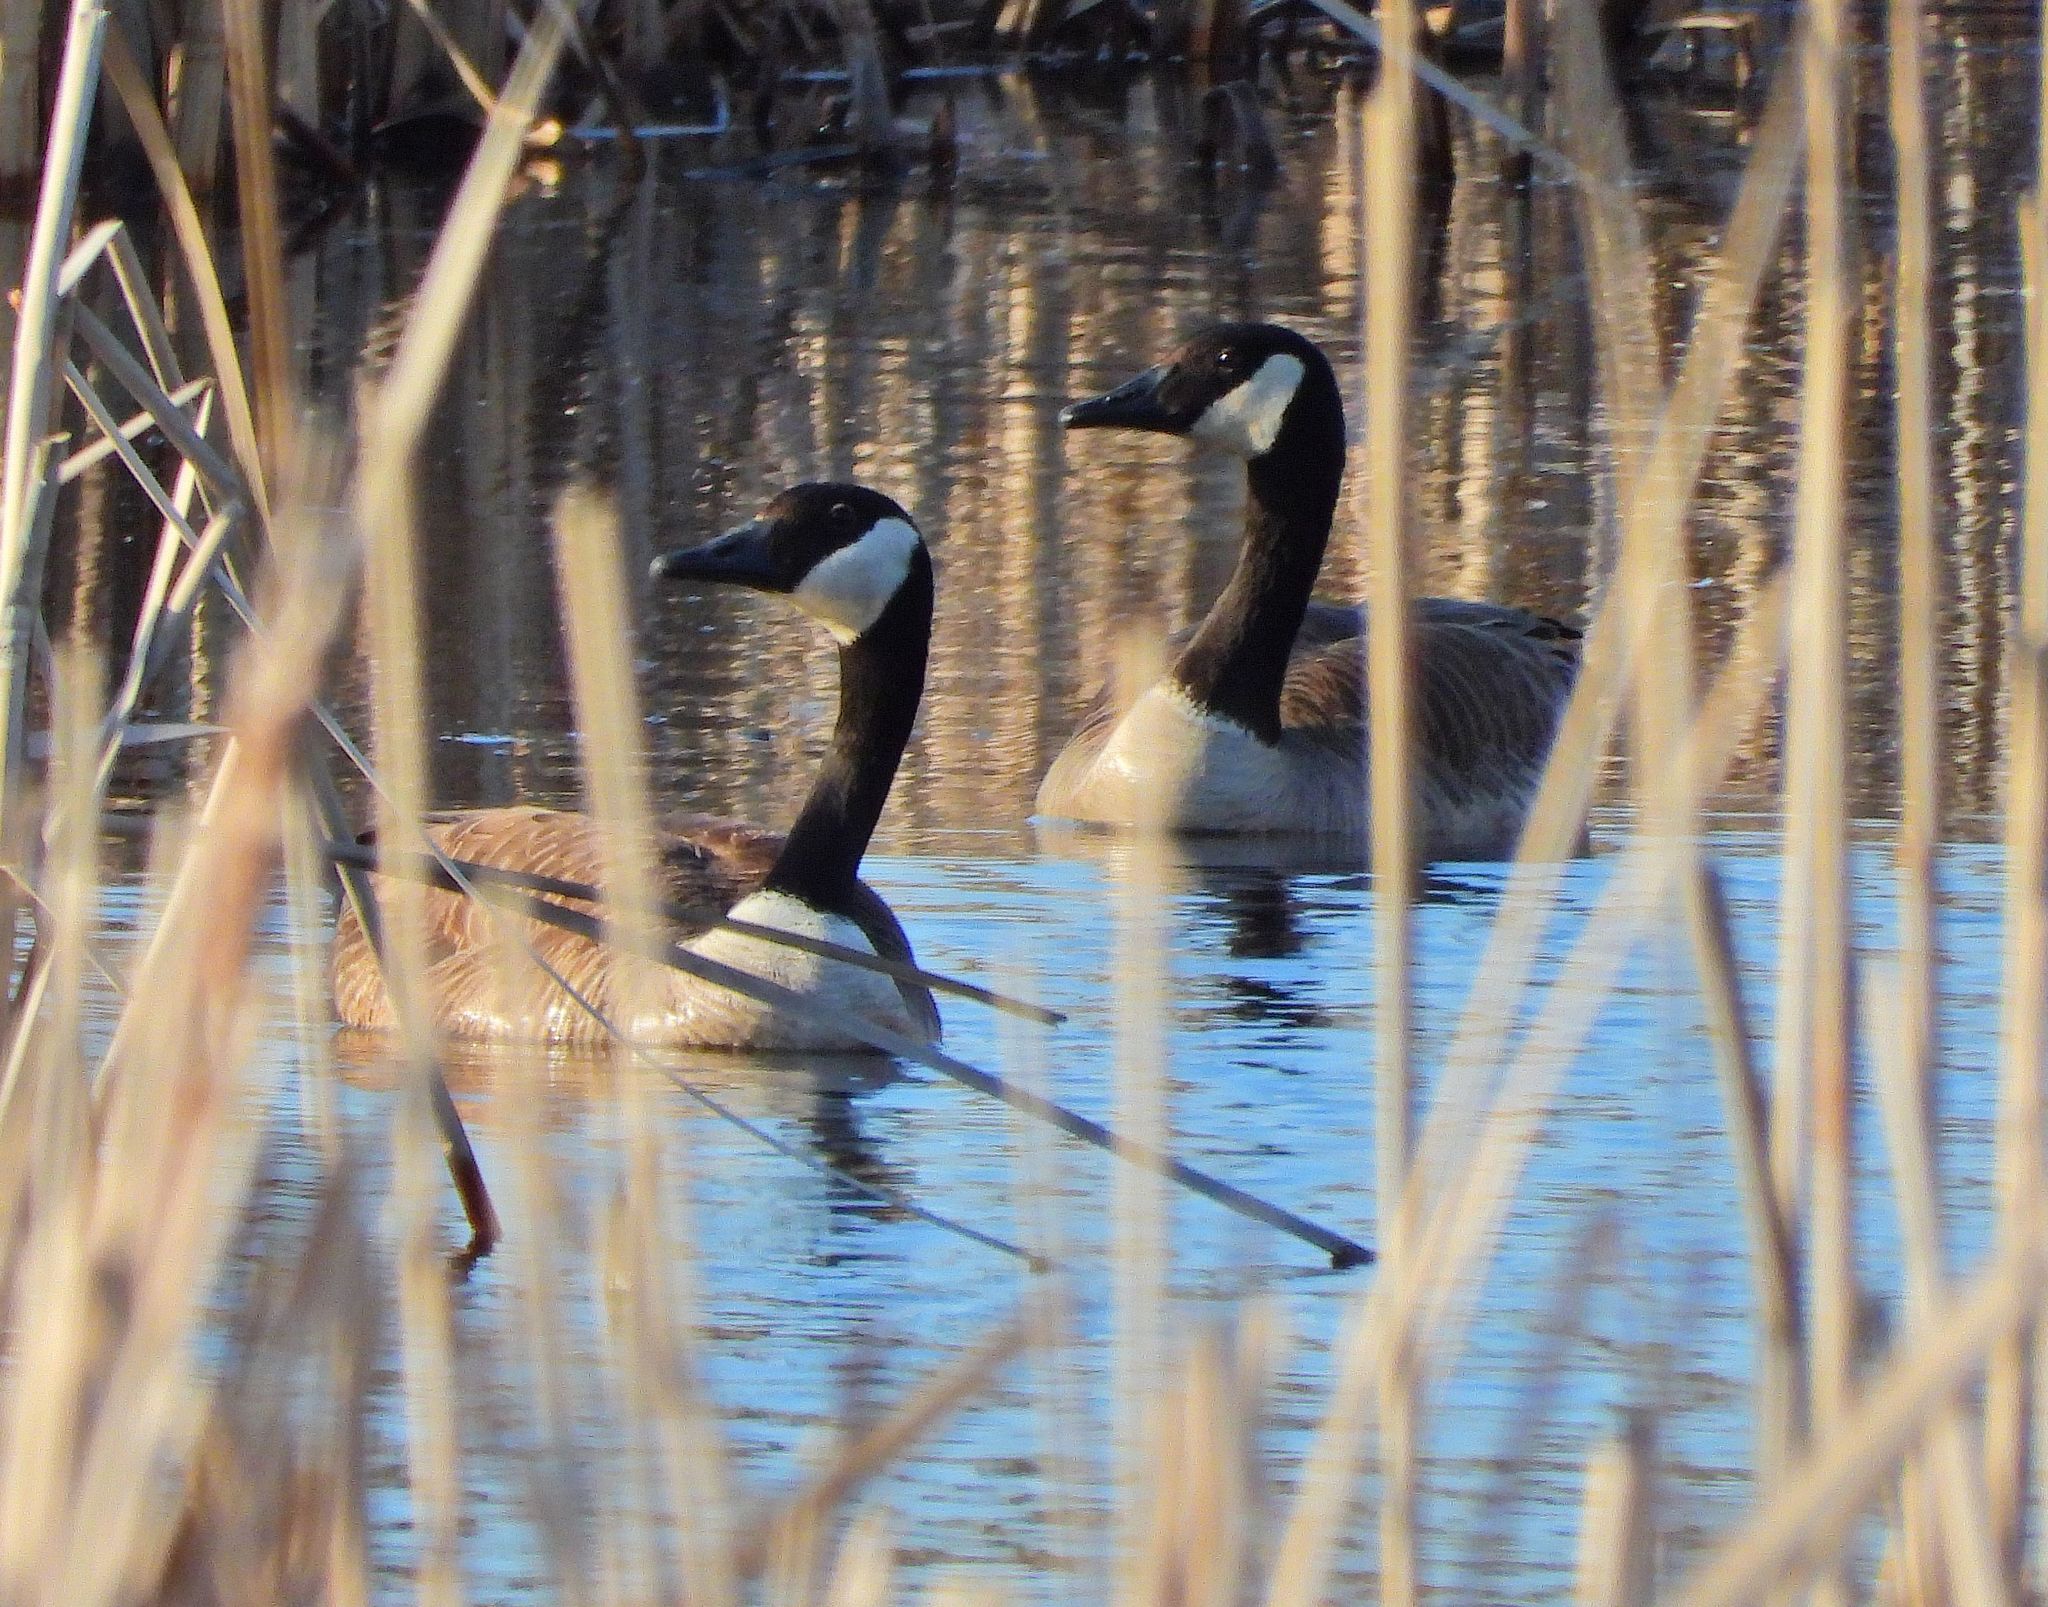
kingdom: Animalia
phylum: Chordata
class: Aves
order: Anseriformes
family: Anatidae
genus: Branta
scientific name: Branta canadensis
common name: Canada goose
